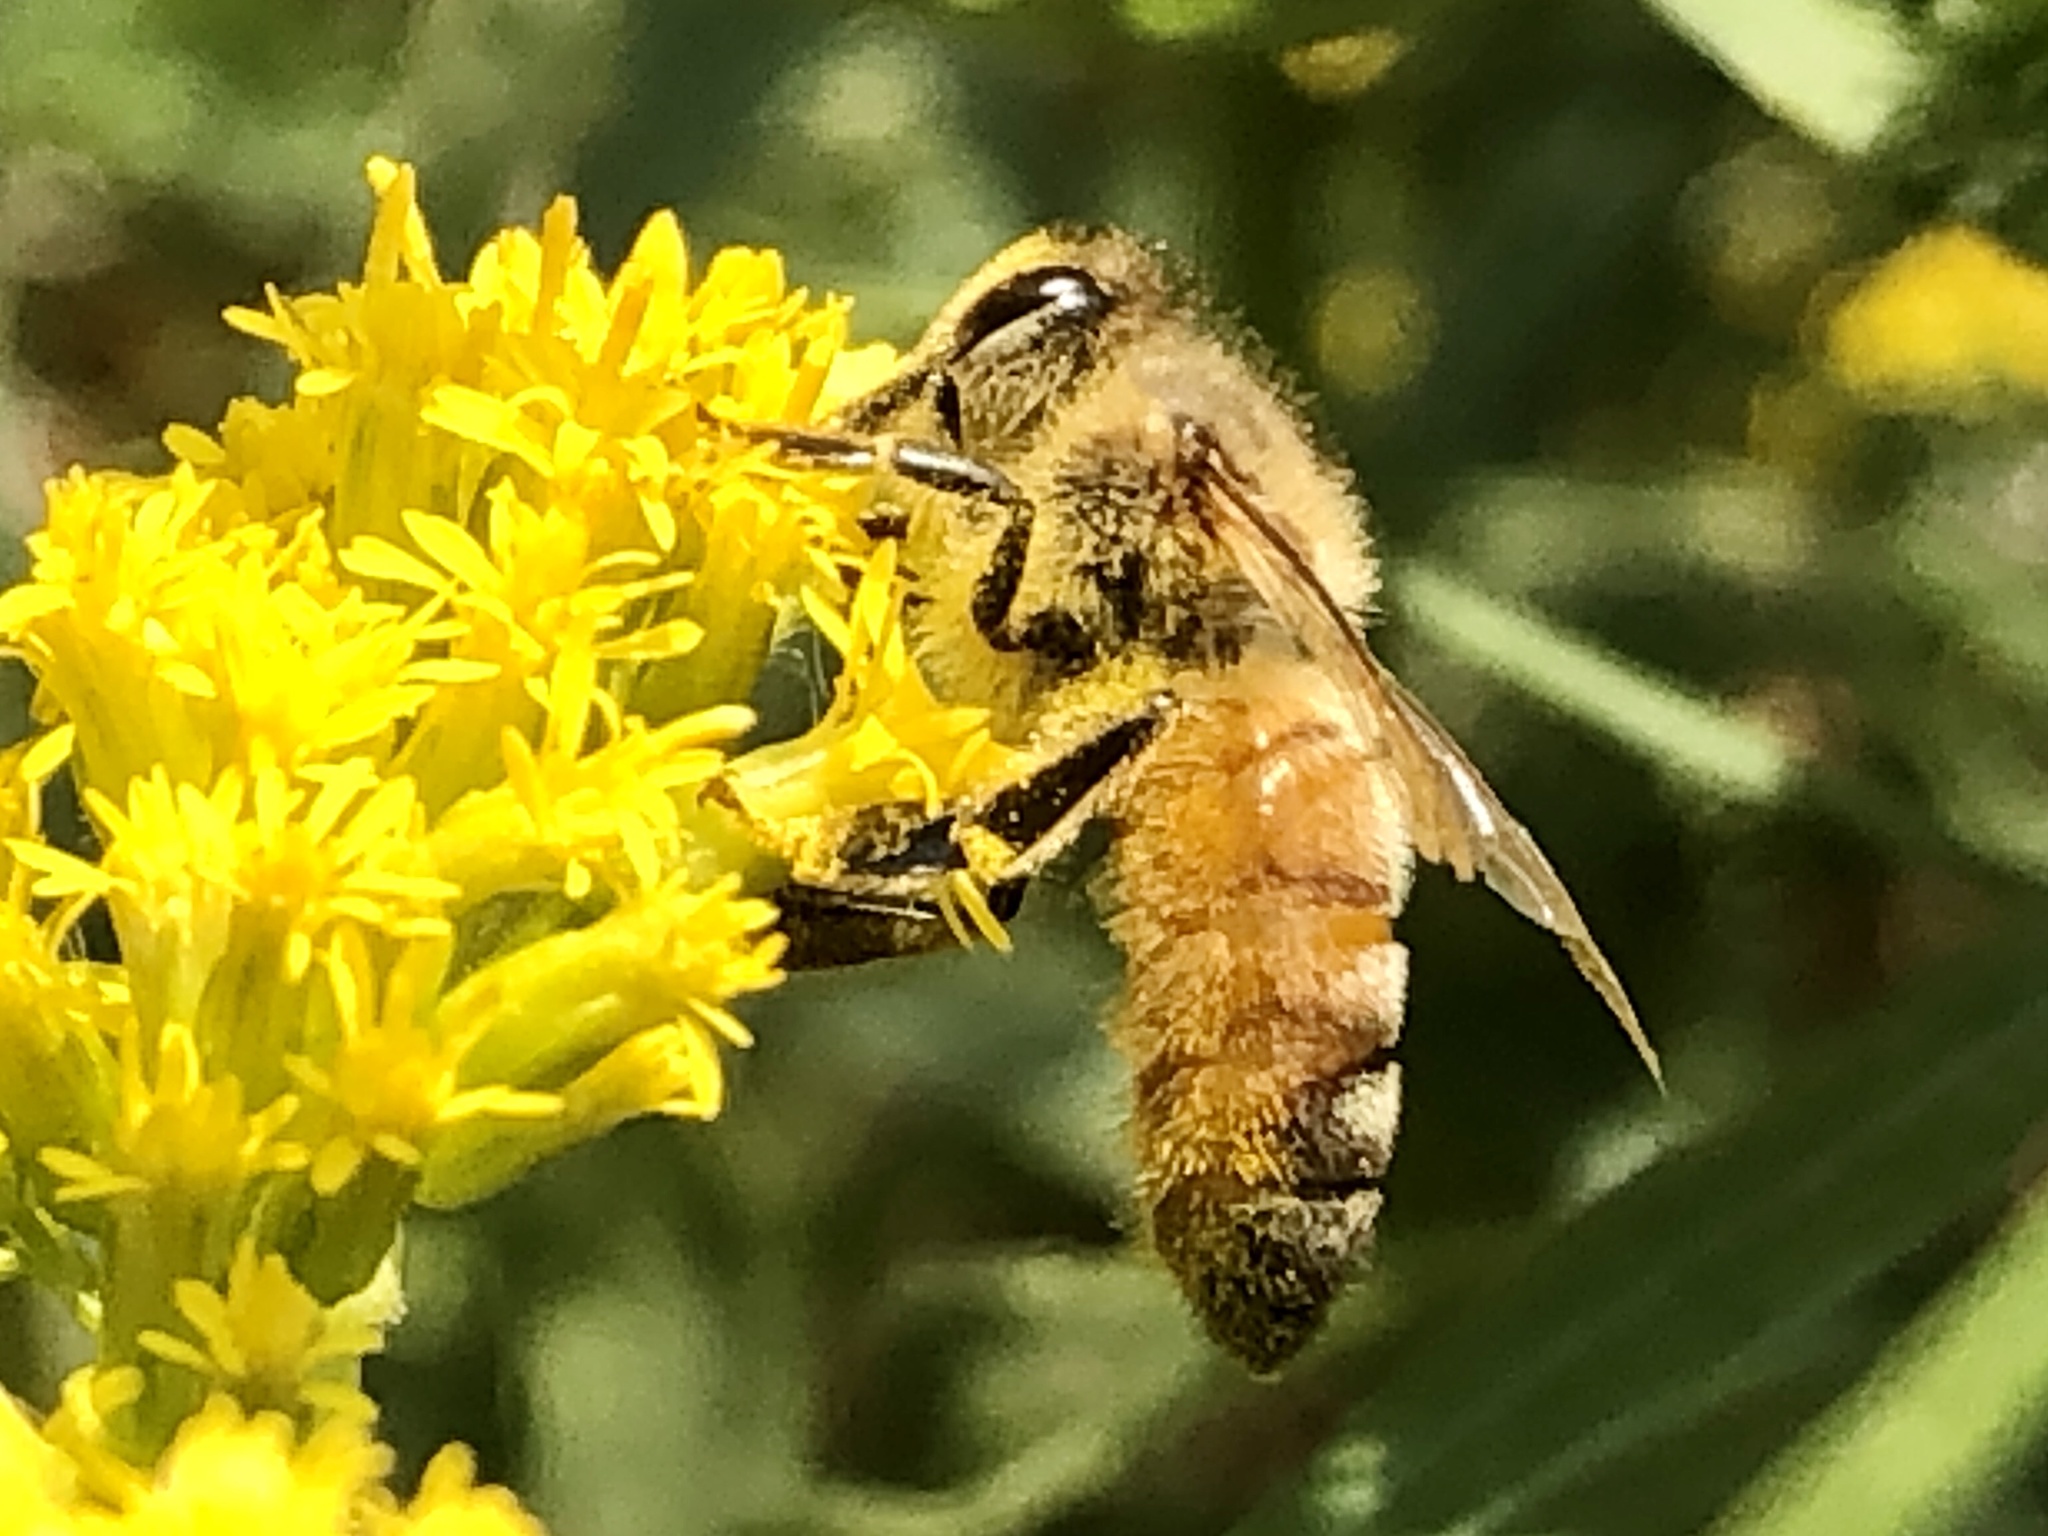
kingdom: Animalia
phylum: Arthropoda
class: Insecta
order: Hymenoptera
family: Apidae
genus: Apis
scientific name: Apis mellifera
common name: Honey bee
